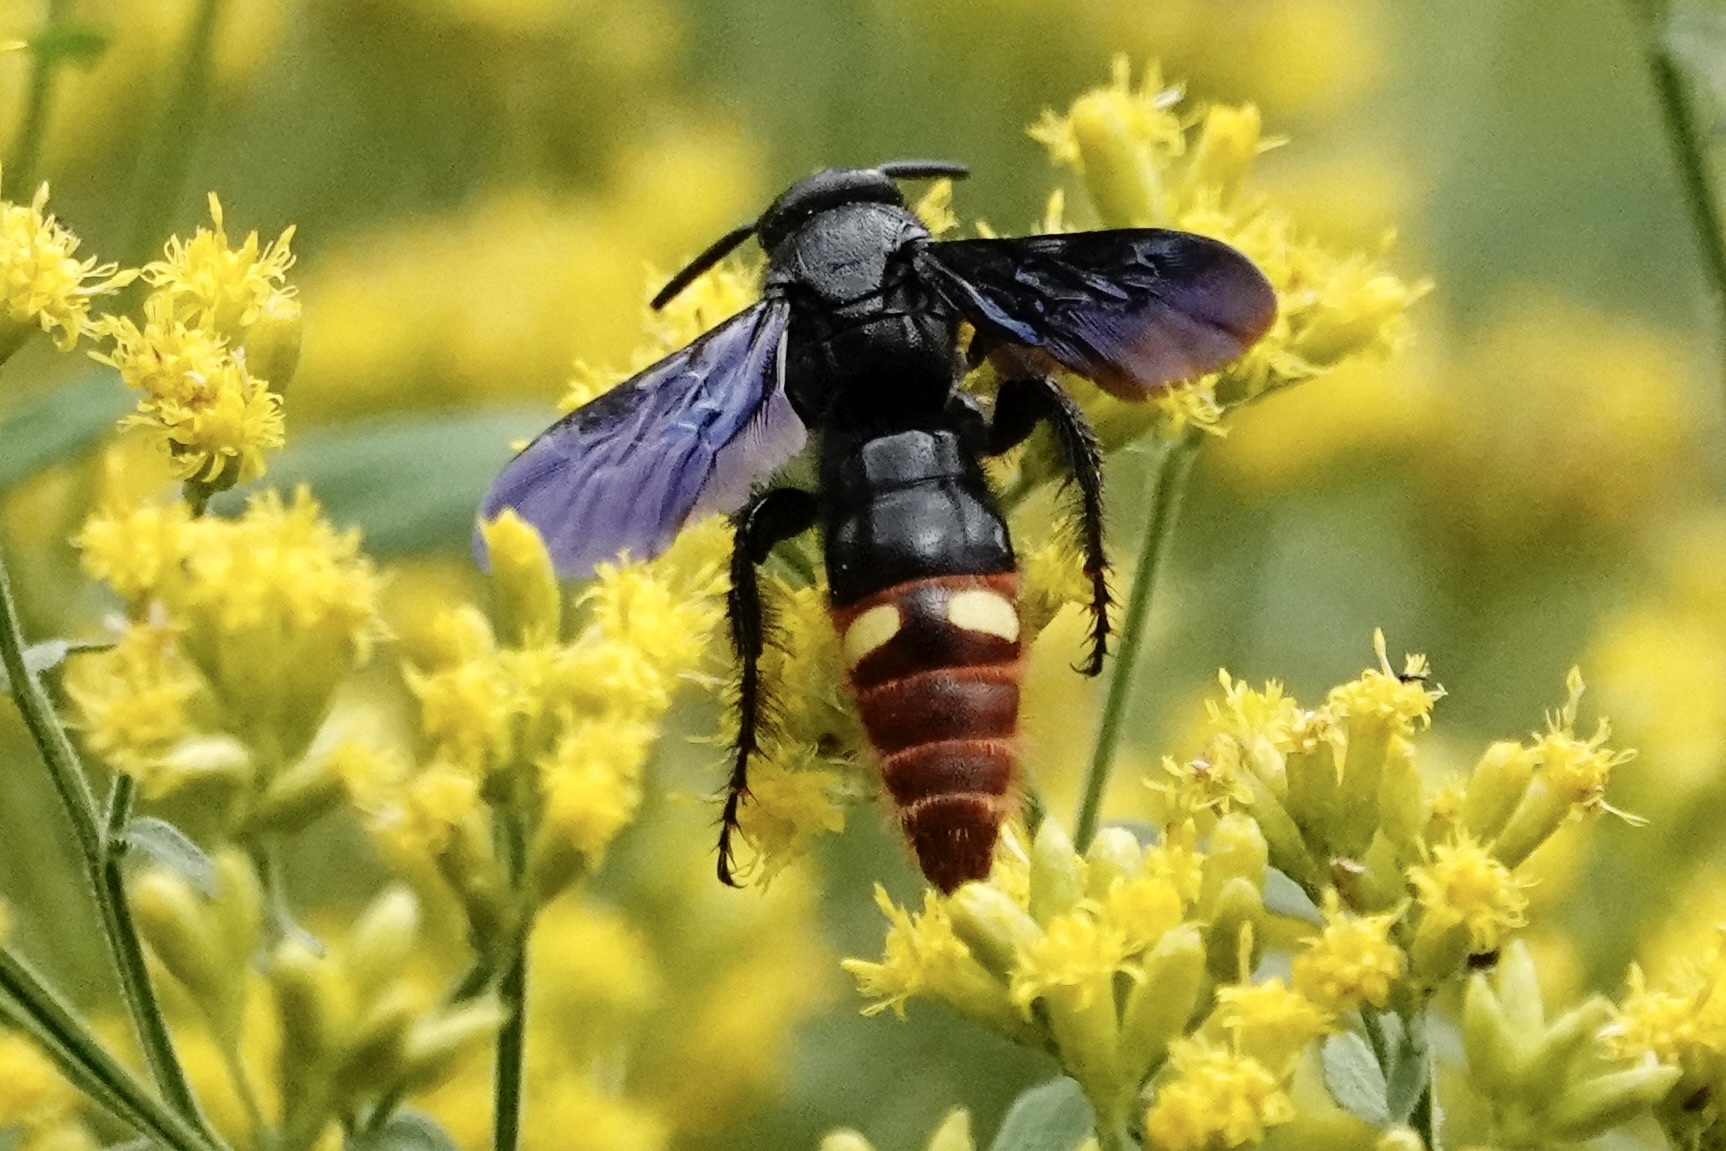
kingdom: Animalia
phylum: Arthropoda
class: Insecta
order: Hymenoptera
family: Scoliidae
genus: Scolia
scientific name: Scolia dubia
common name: Blue-winged scoliid wasp
